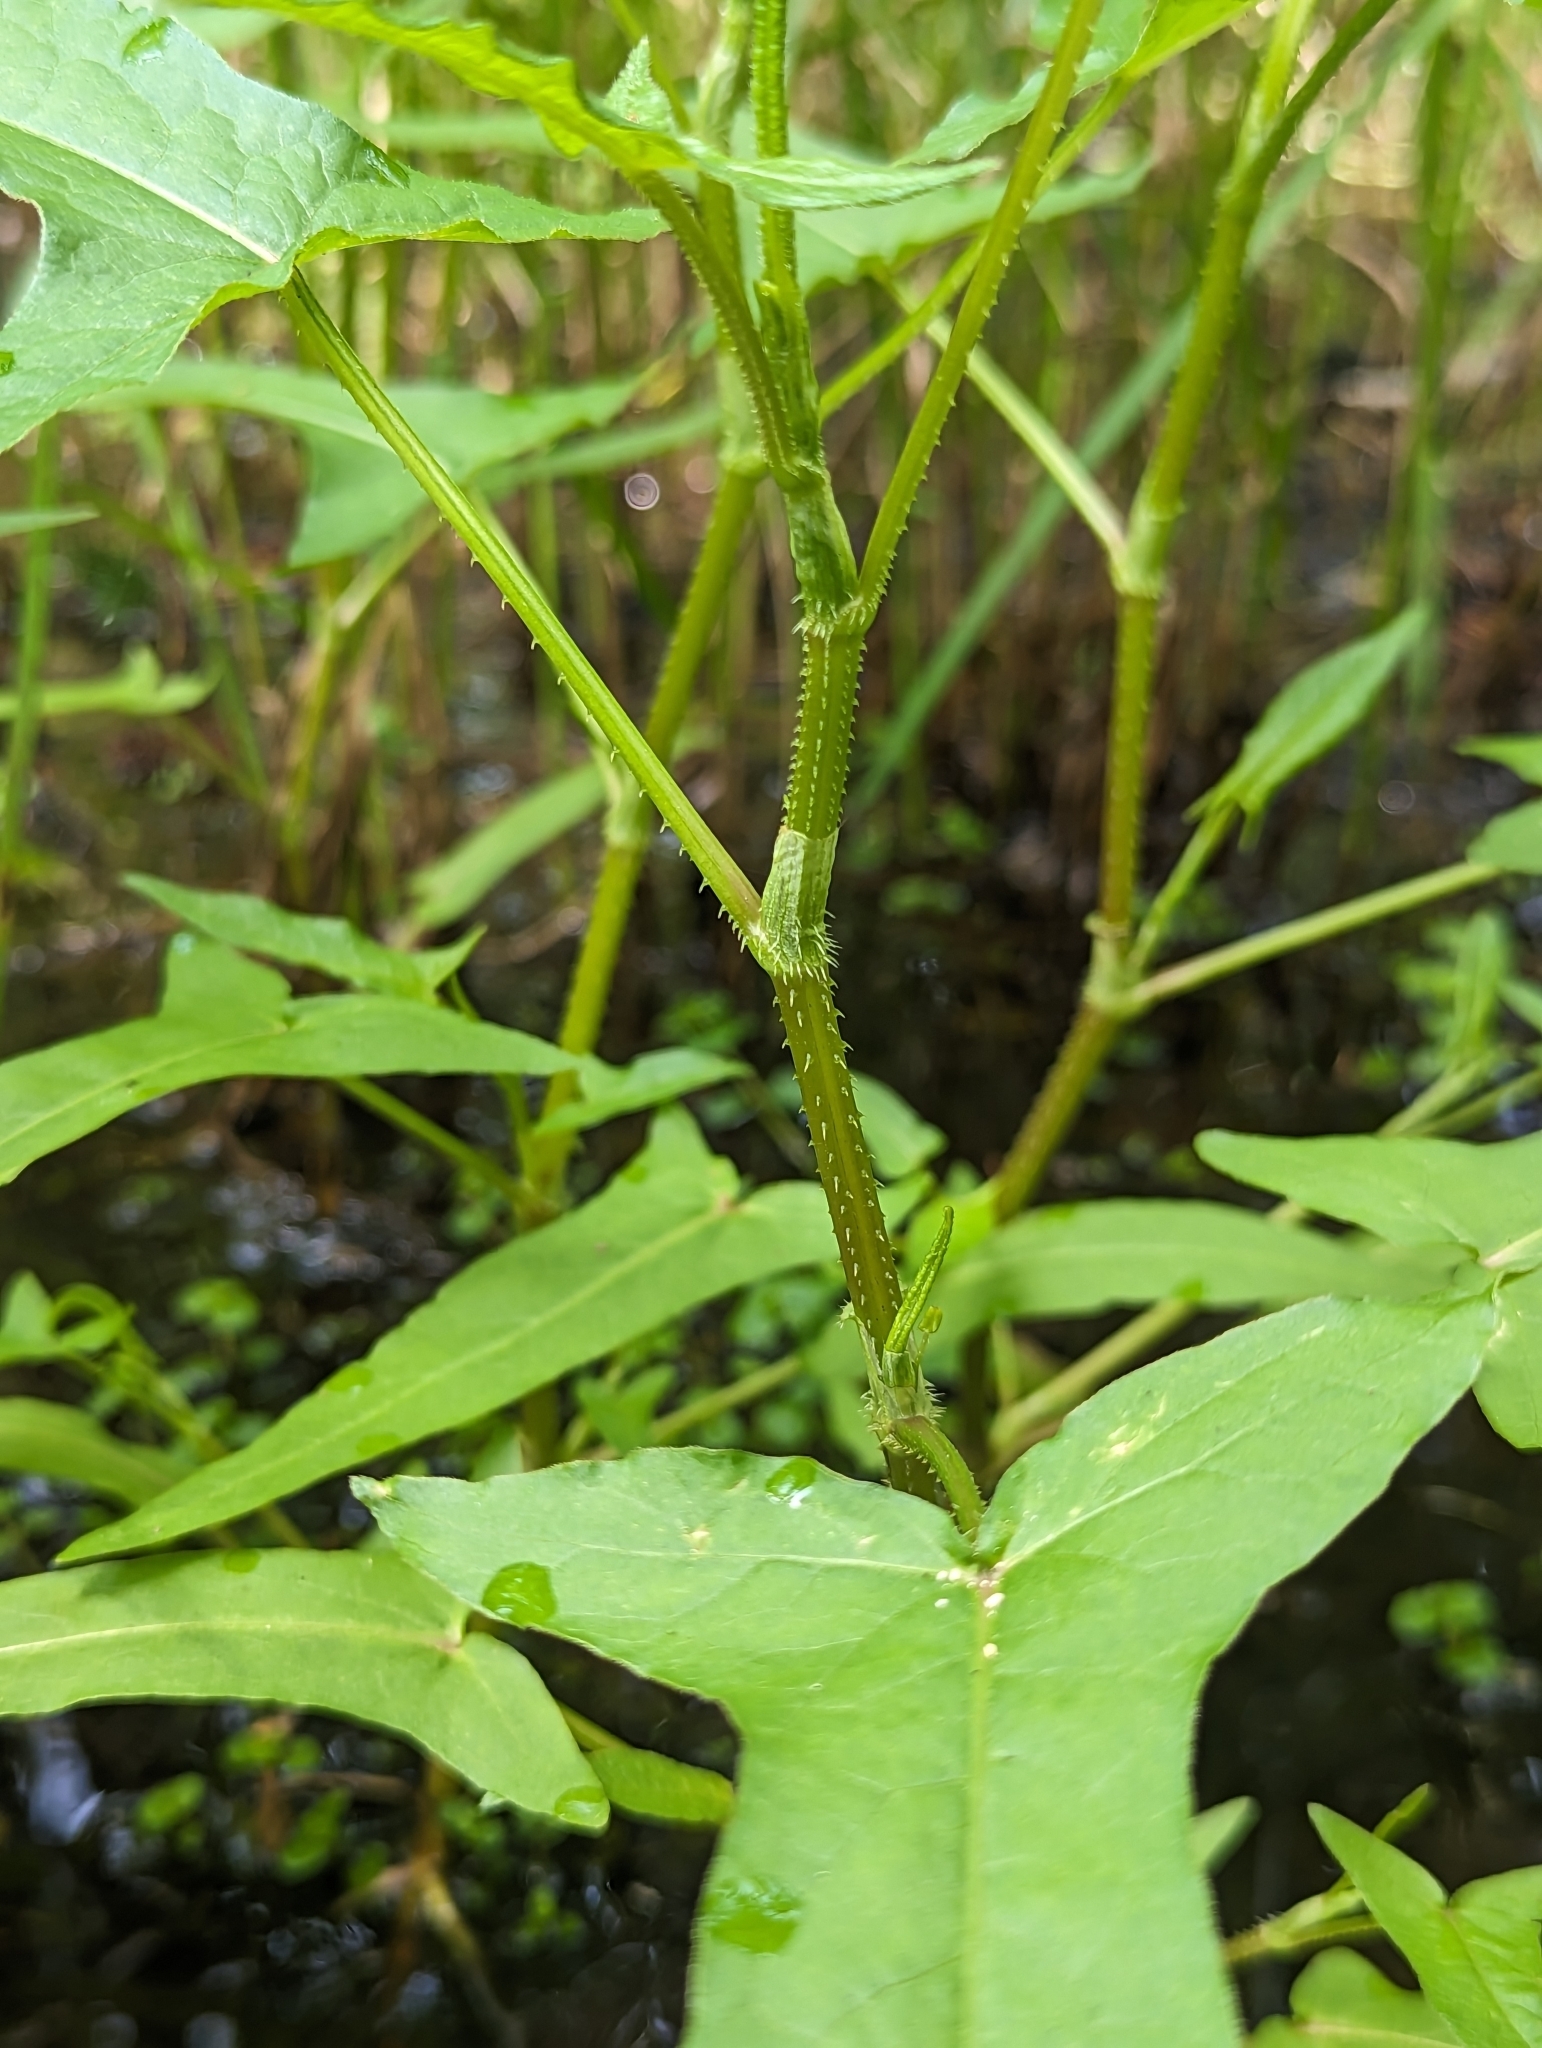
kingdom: Plantae
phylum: Tracheophyta
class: Magnoliopsida
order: Caryophyllales
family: Polygonaceae
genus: Persicaria
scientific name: Persicaria arifolia
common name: Halberd-leaved tear-thumb
